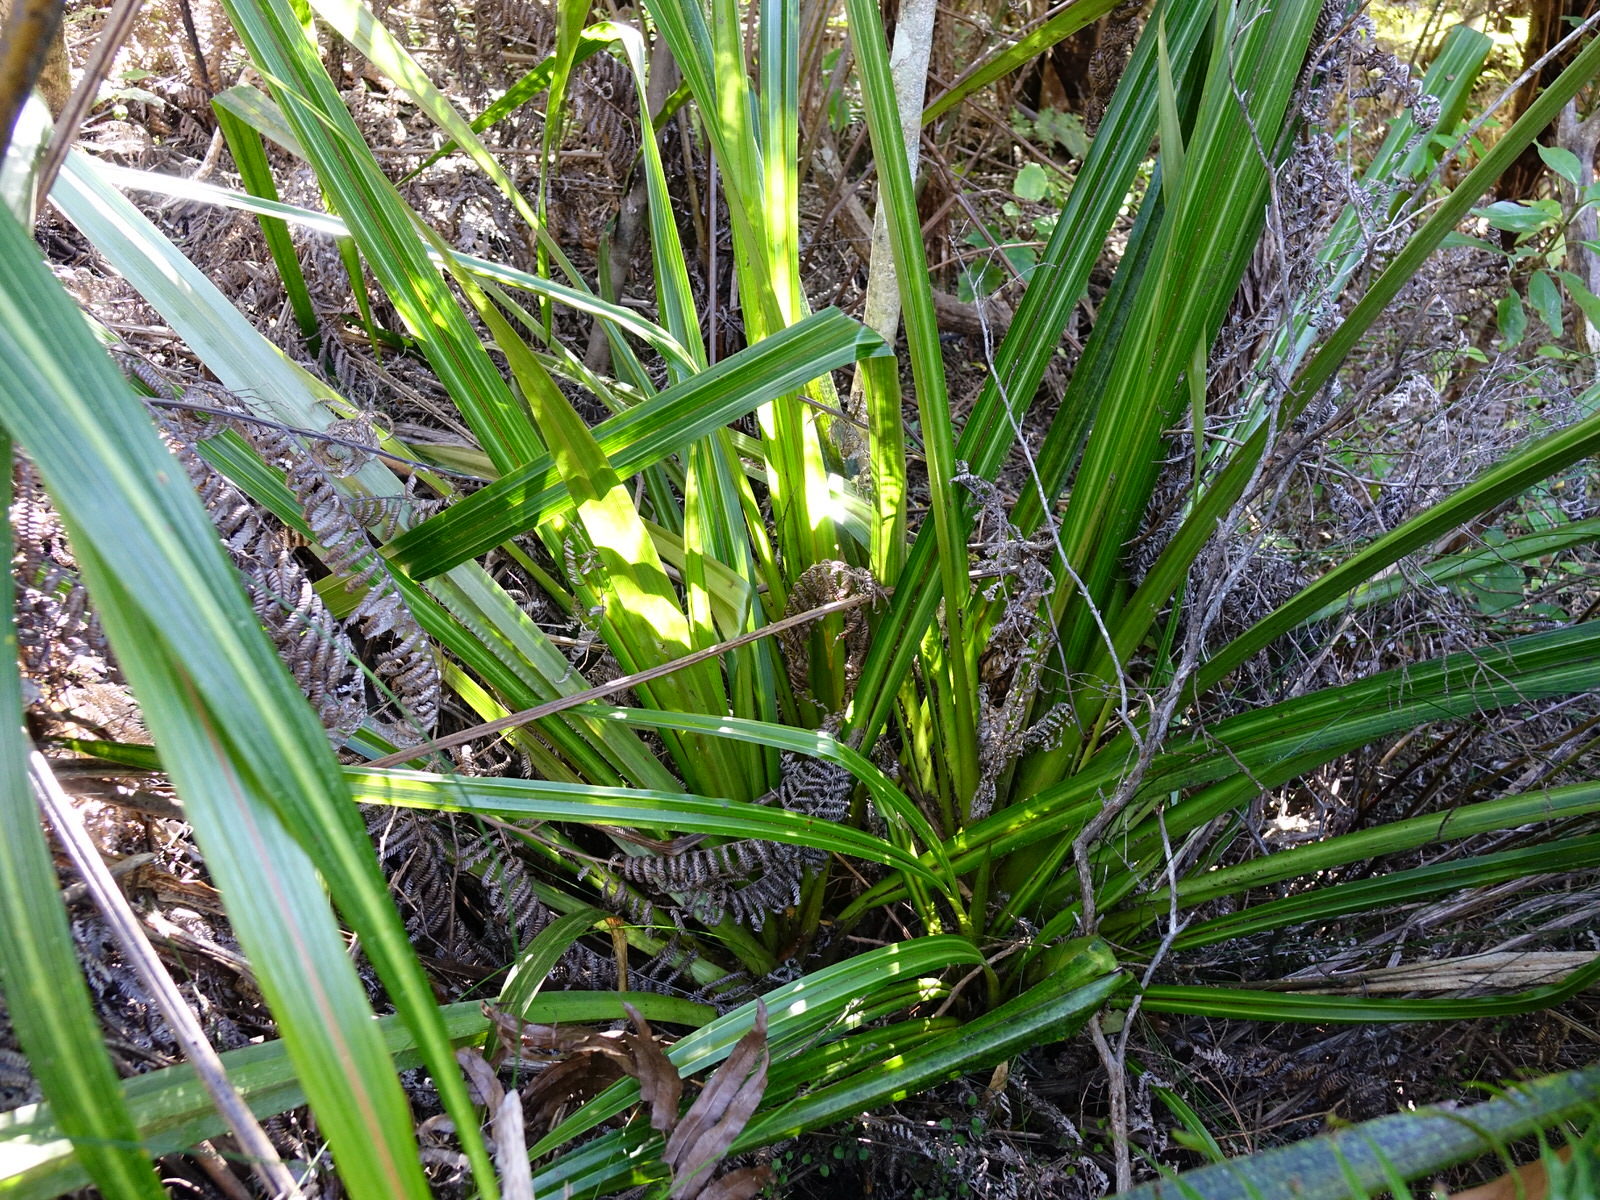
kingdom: Plantae
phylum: Tracheophyta
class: Liliopsida
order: Asparagales
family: Asteliaceae
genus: Astelia
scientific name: Astelia grandis
